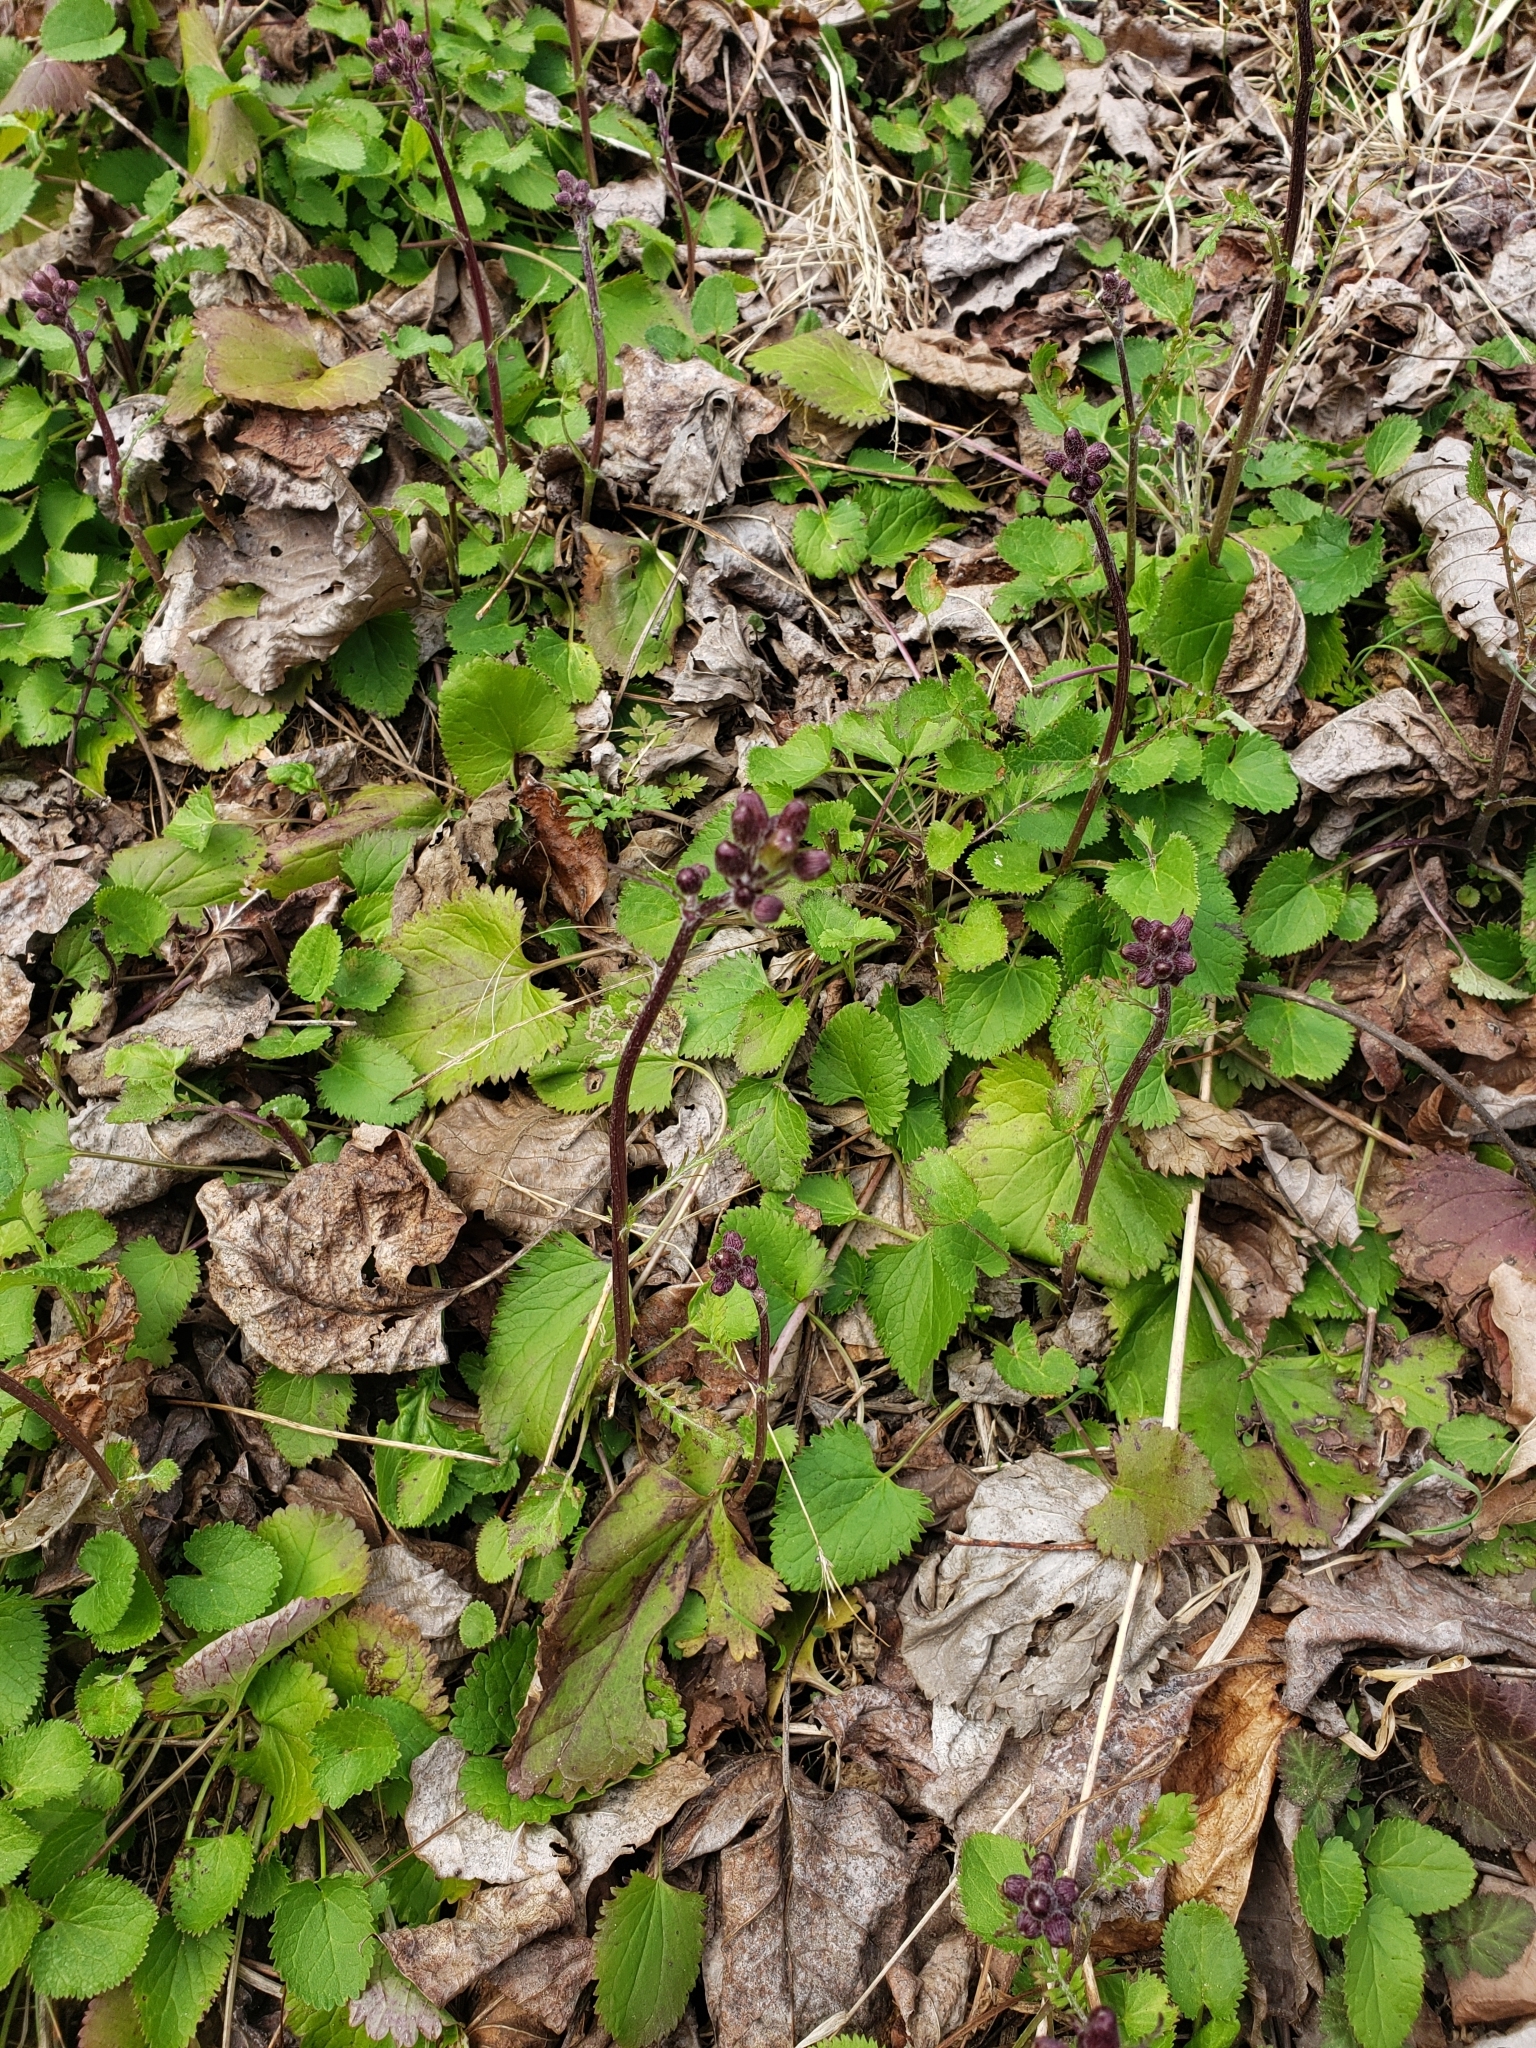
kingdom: Plantae
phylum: Tracheophyta
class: Magnoliopsida
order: Asterales
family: Asteraceae
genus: Packera
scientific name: Packera aurea
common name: Golden groundsel
